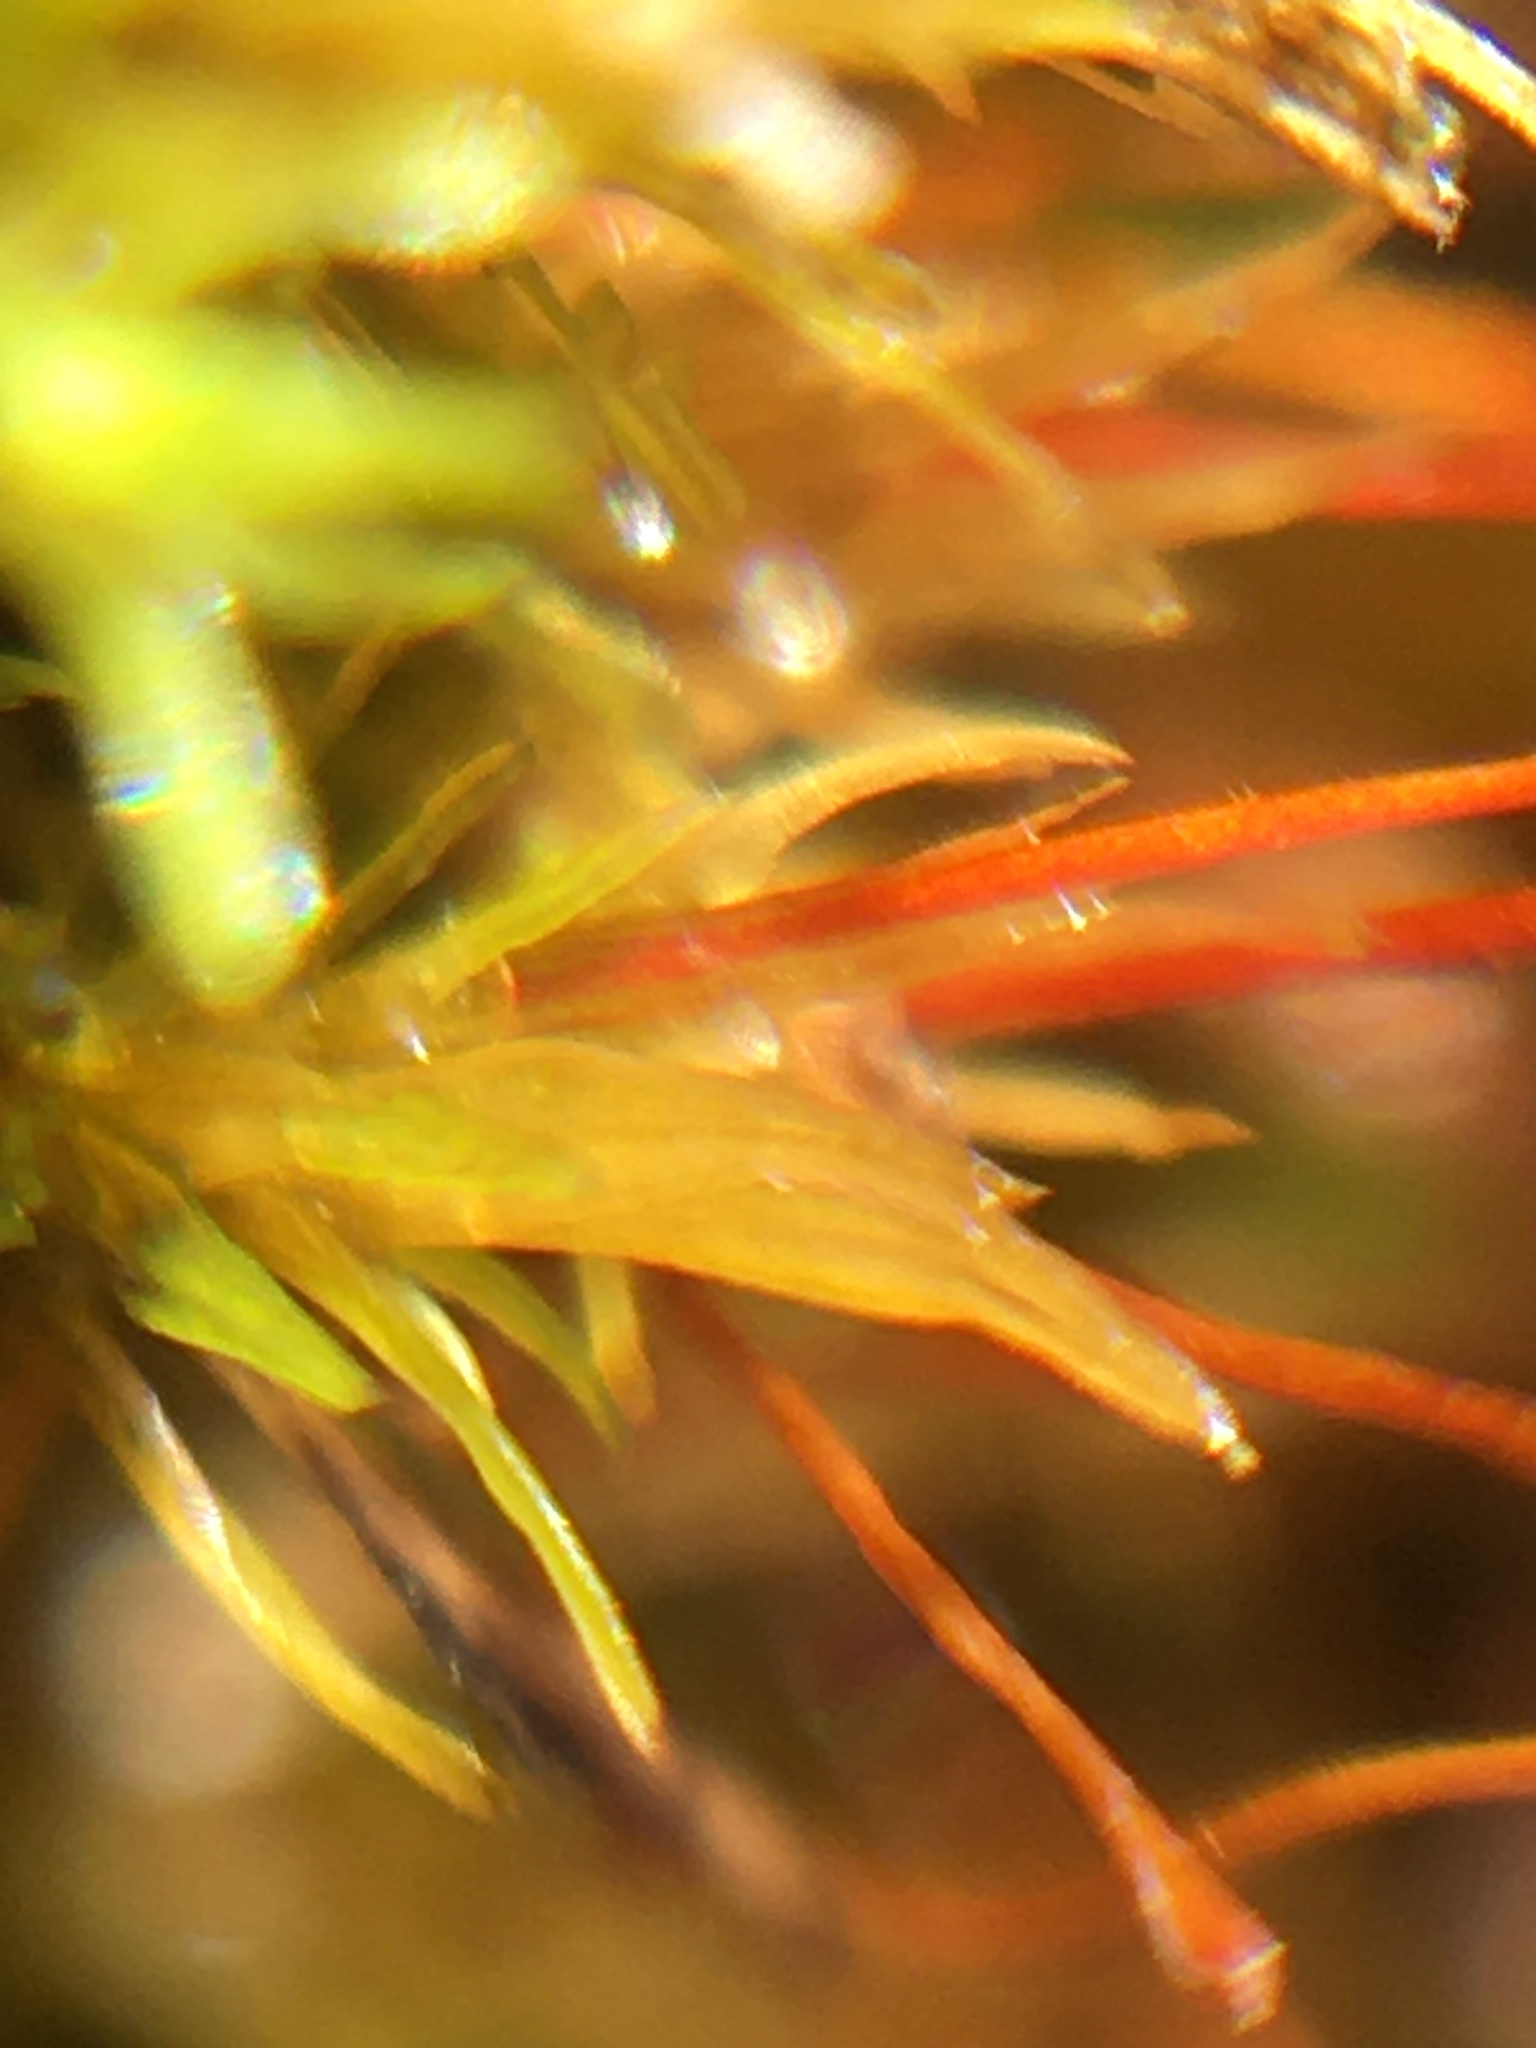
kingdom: Plantae
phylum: Bryophyta
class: Bryopsida
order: Dicranales
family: Ditrichaceae
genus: Ceratodon
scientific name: Ceratodon purpureus
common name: Redshank
